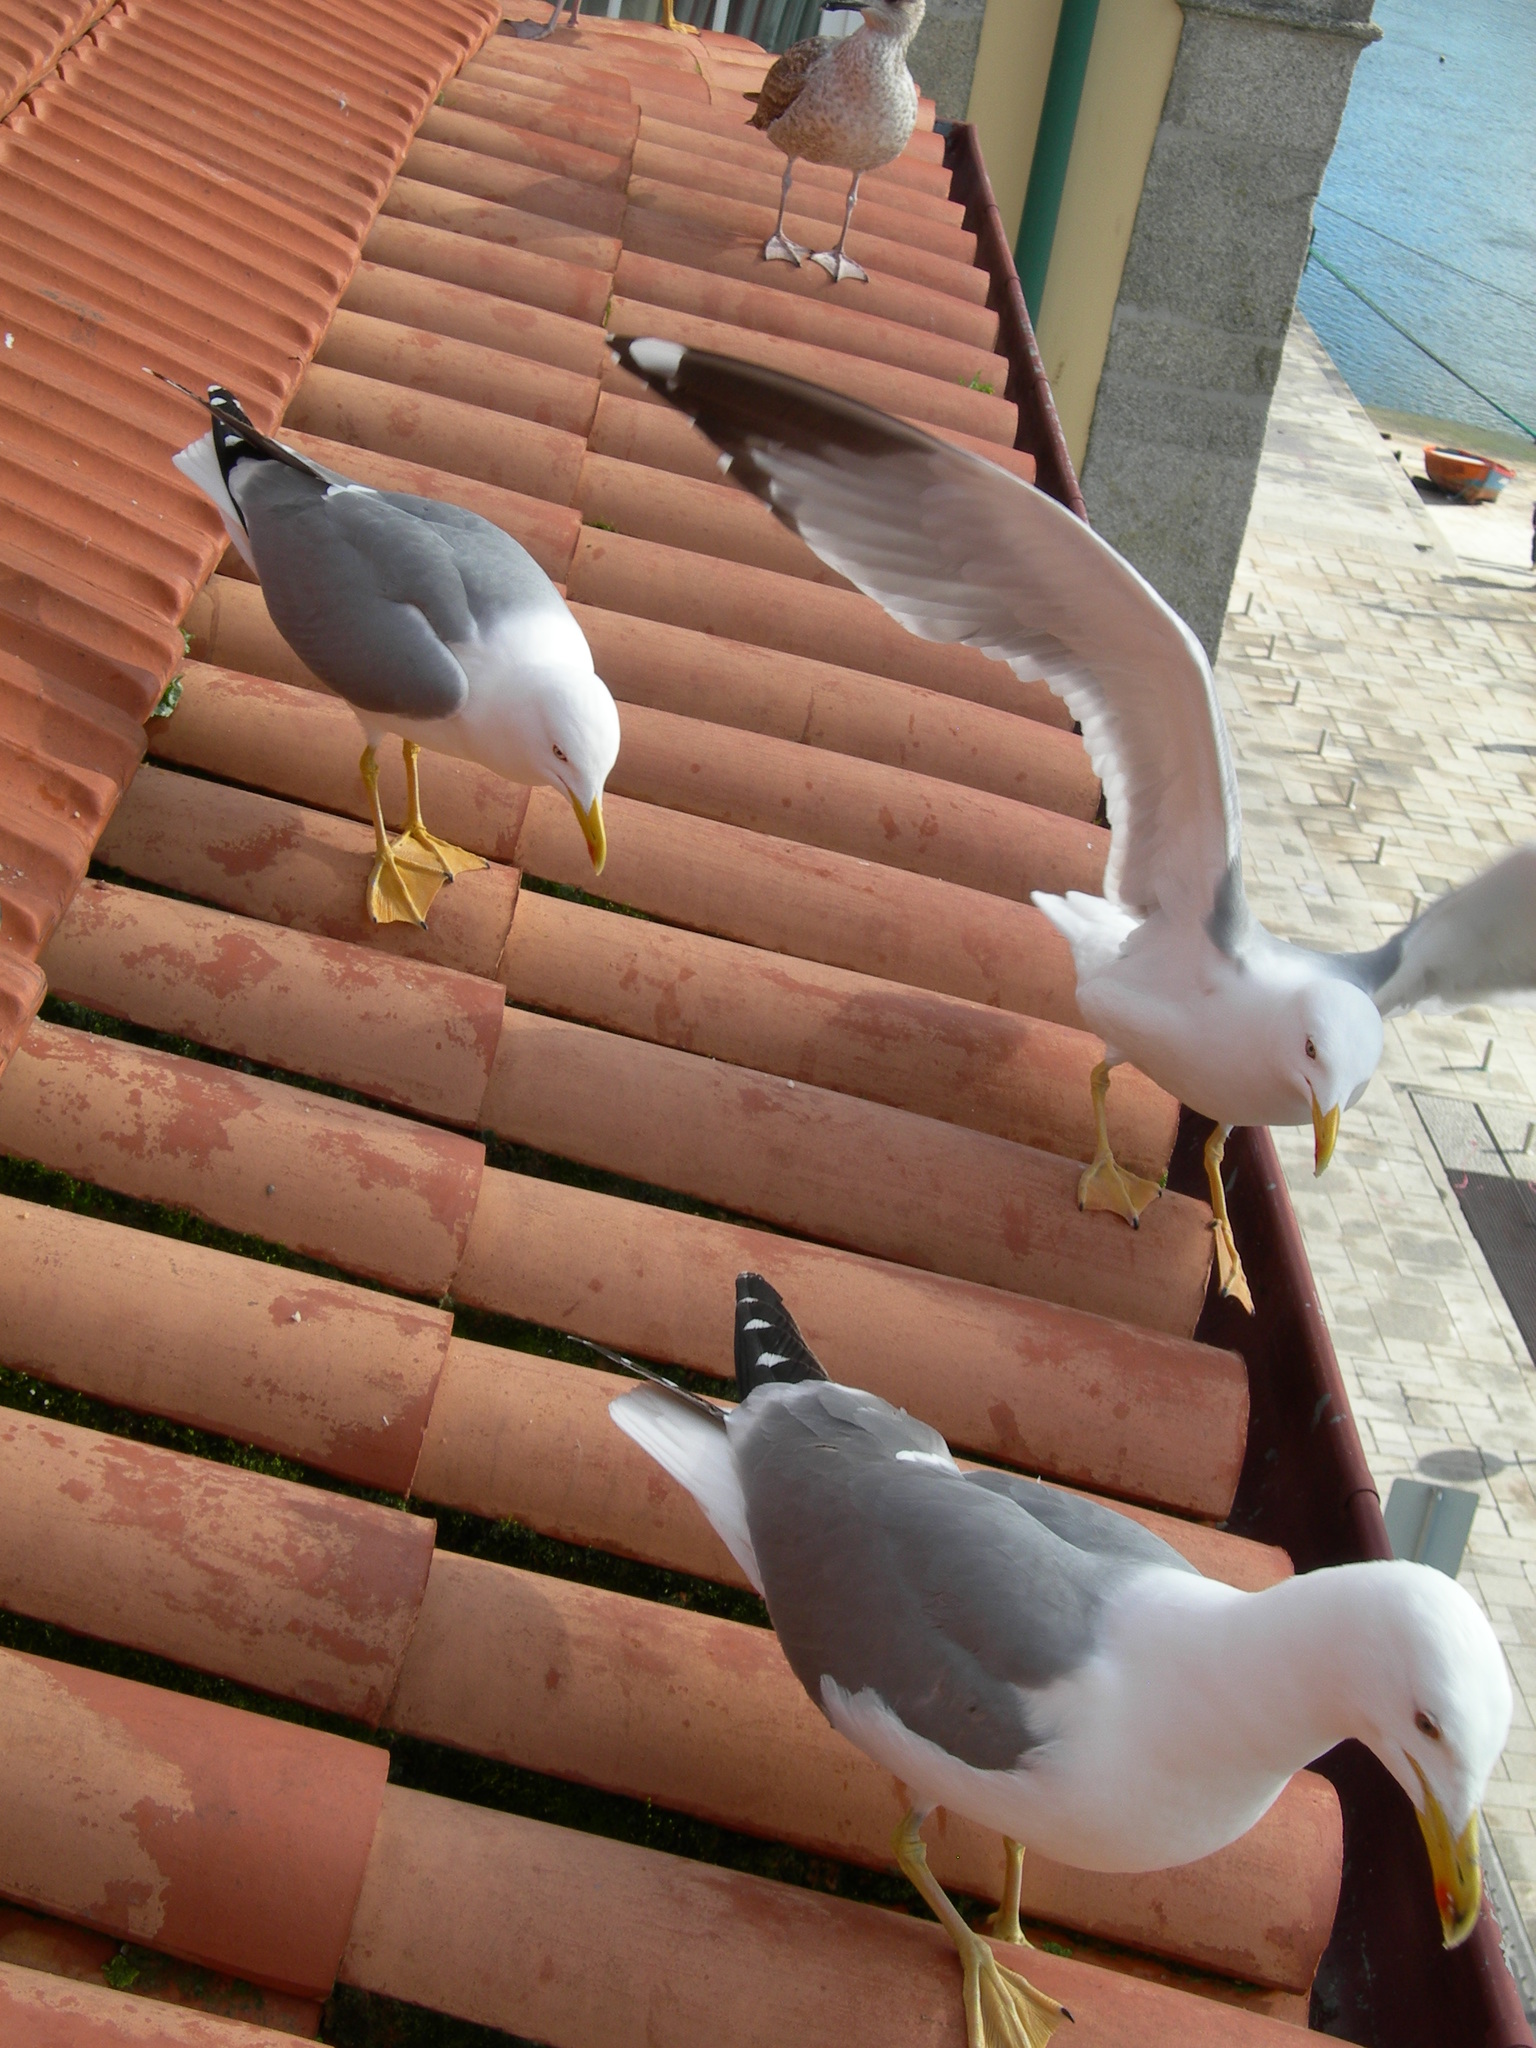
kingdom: Animalia
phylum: Chordata
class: Aves
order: Charadriiformes
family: Laridae
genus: Larus
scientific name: Larus michahellis
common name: Yellow-legged gull
